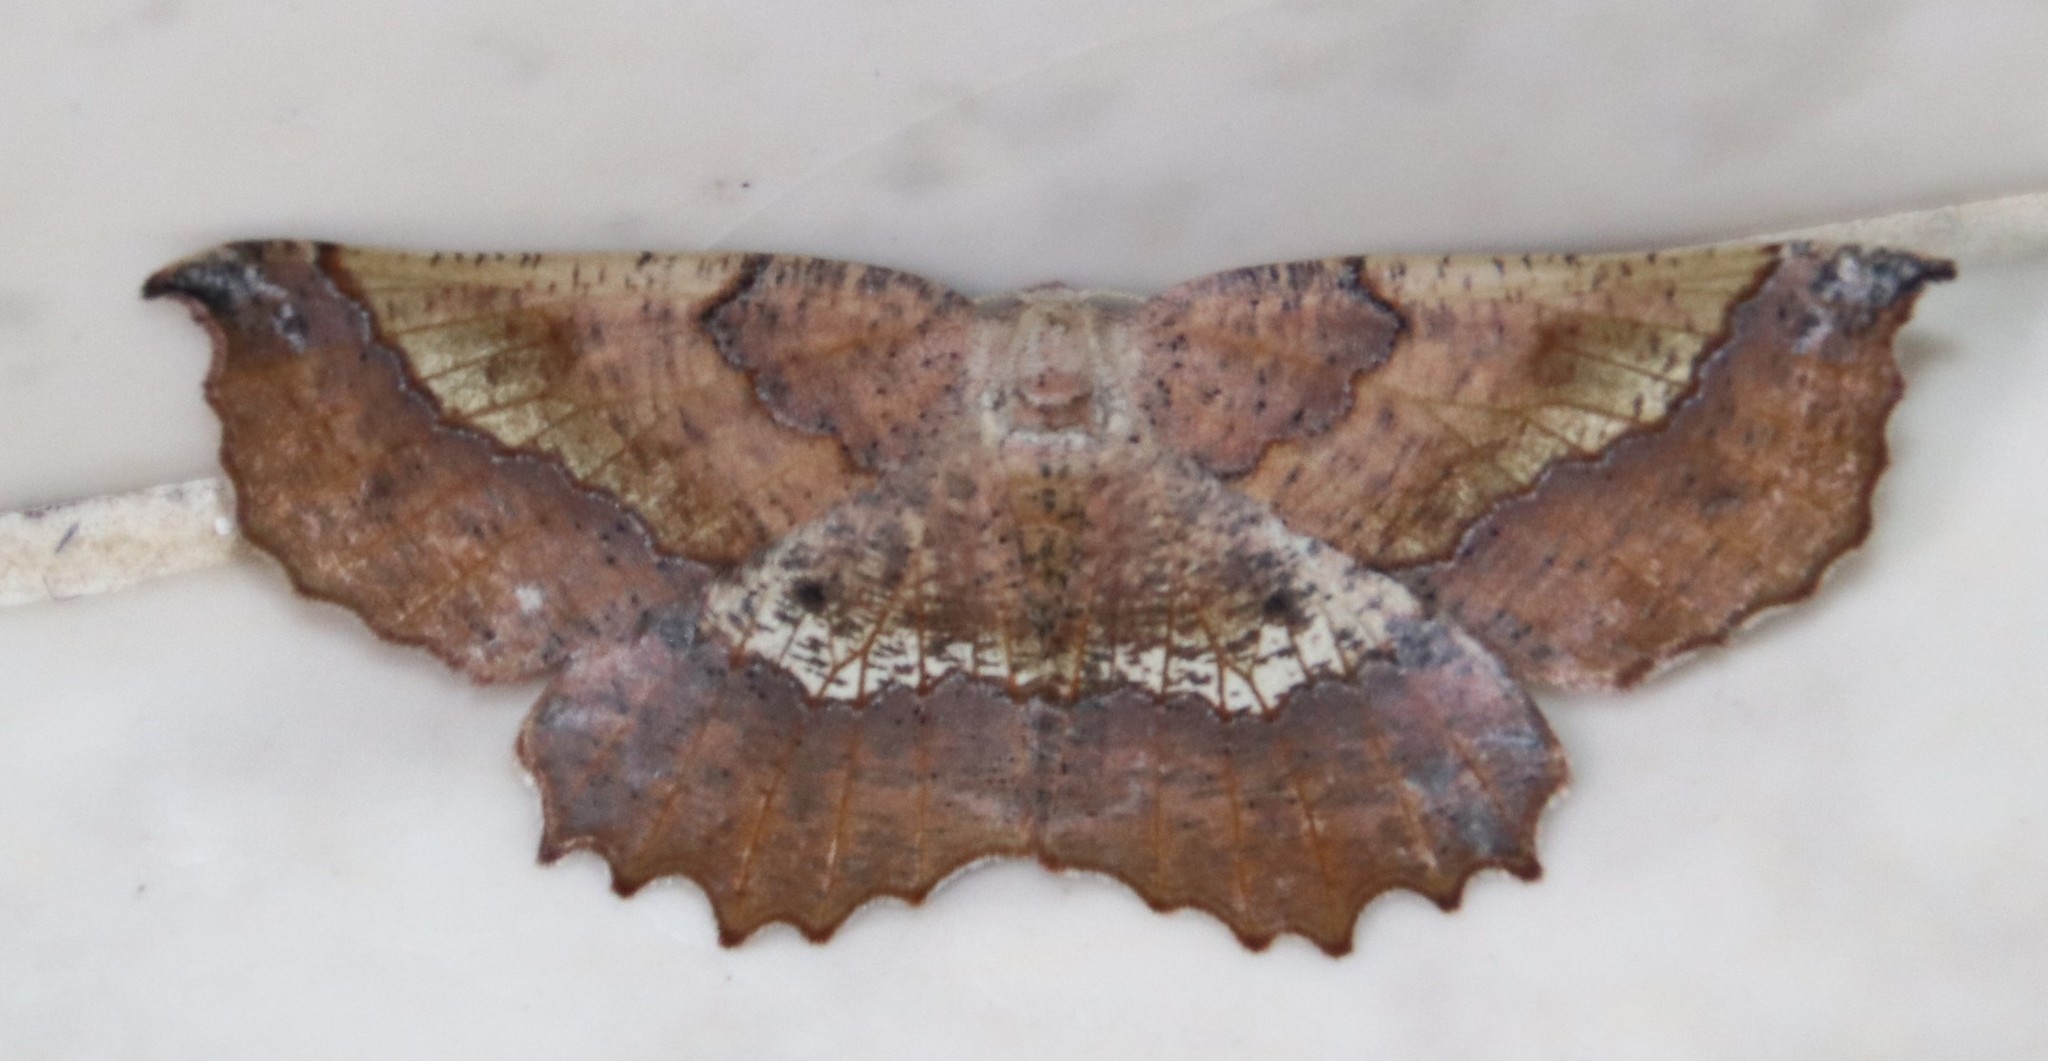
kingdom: Animalia
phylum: Arthropoda
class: Insecta
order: Lepidoptera
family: Geometridae
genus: Drepanogynis
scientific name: Drepanogynis mixtaria
